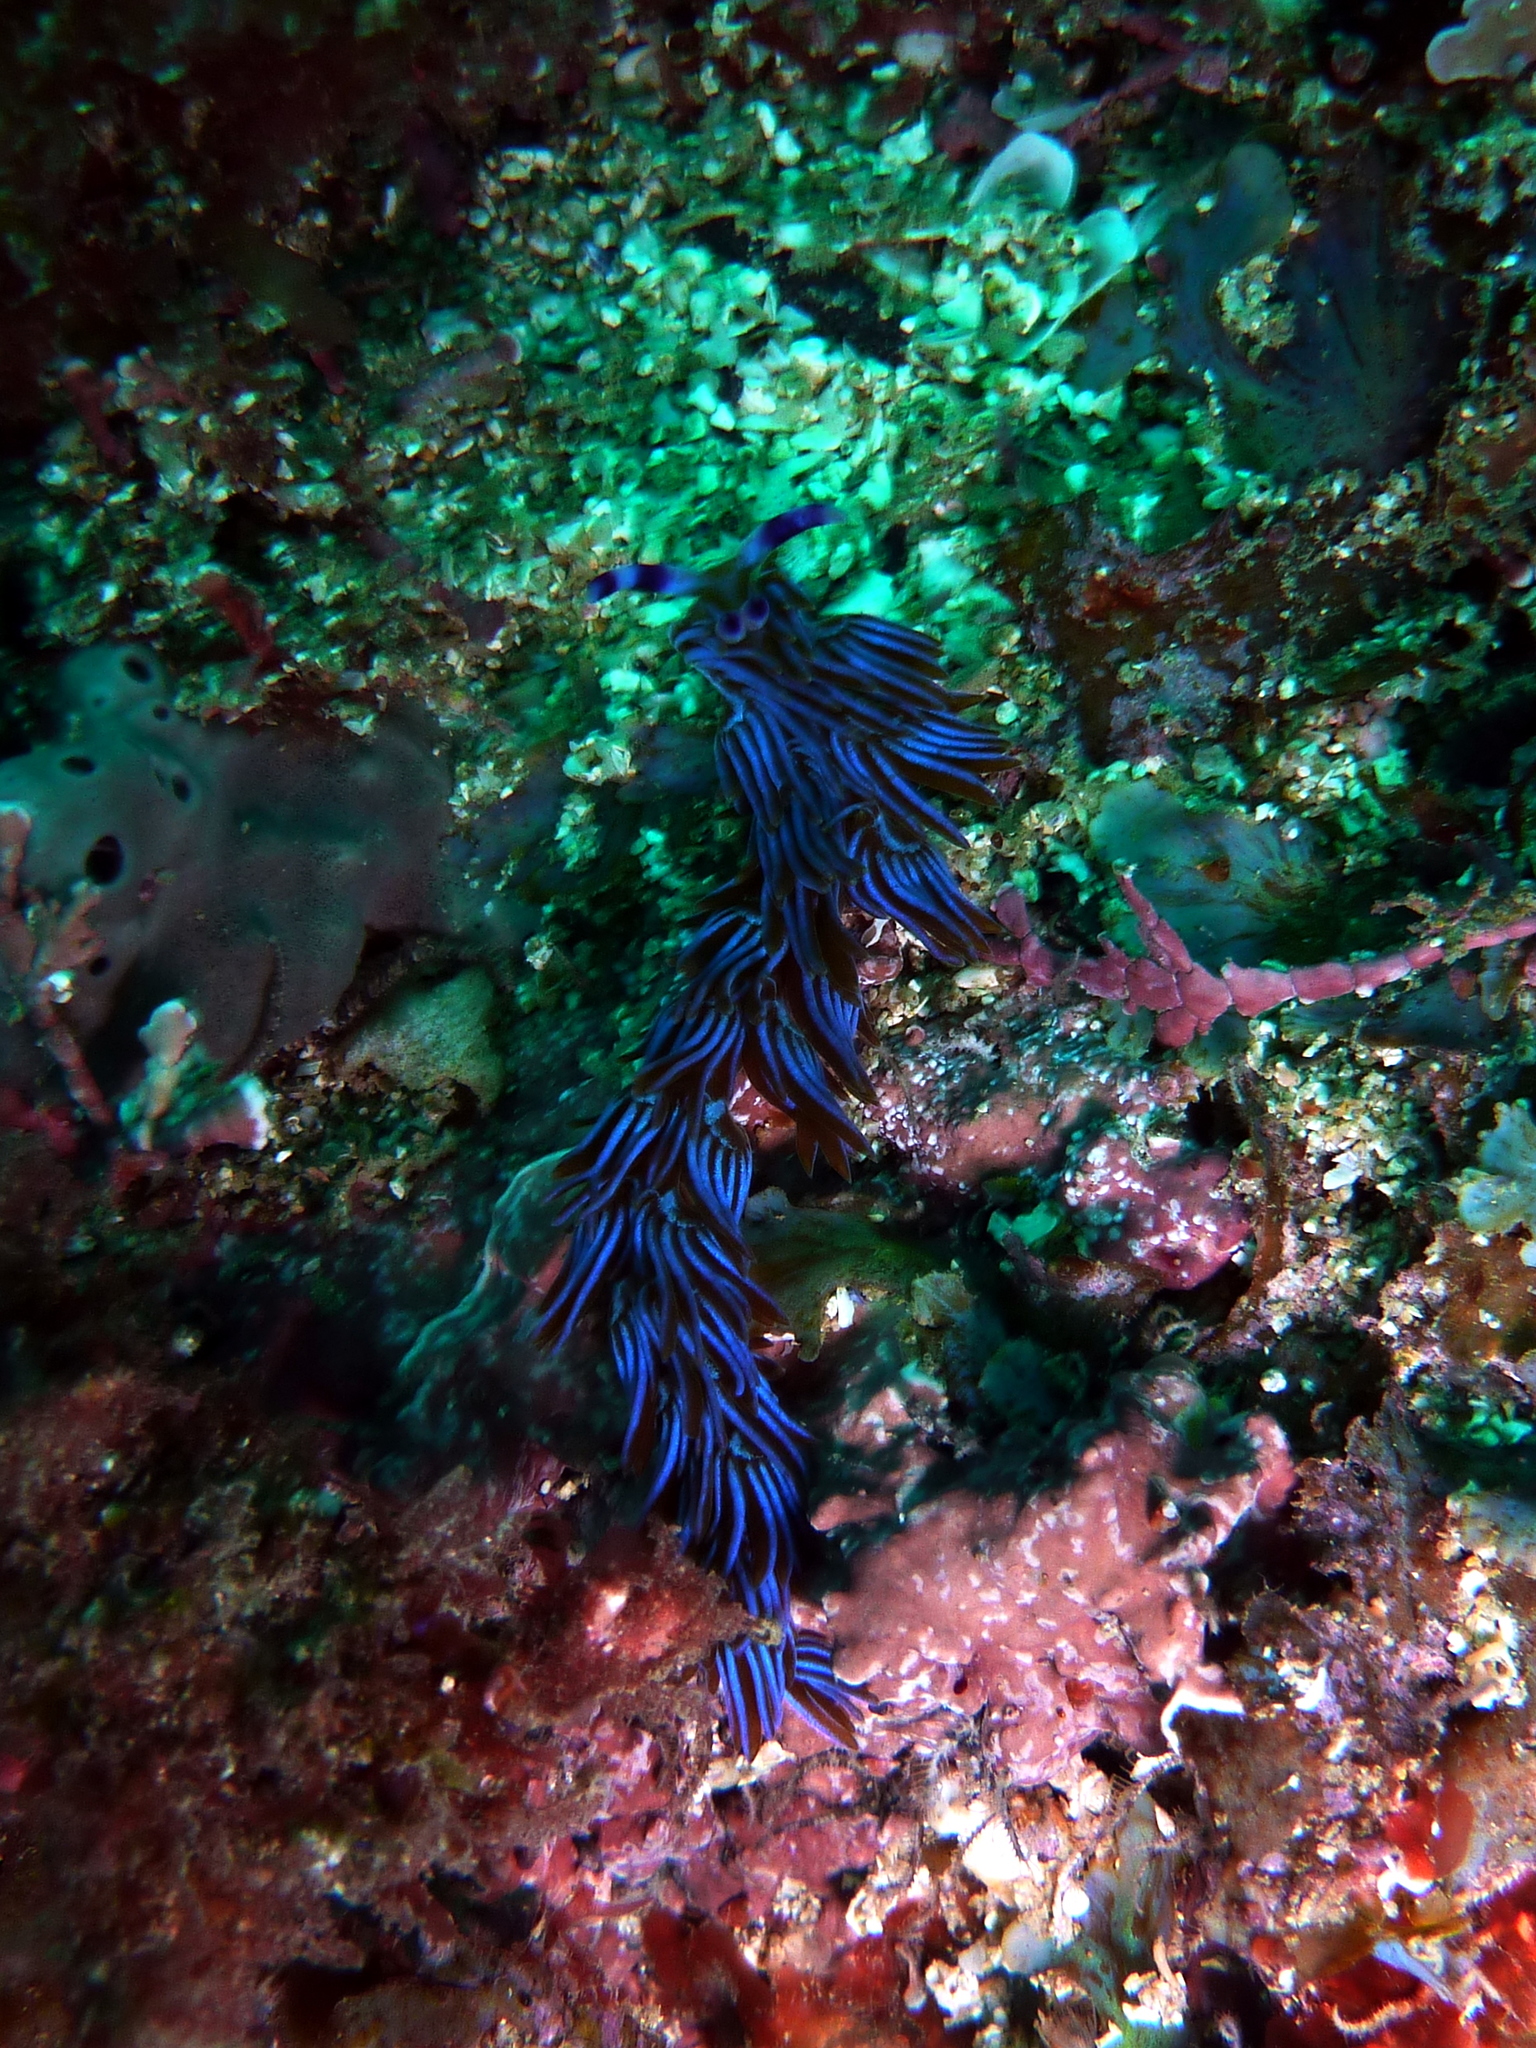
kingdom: Animalia
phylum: Mollusca
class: Gastropoda
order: Nudibranchia
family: Facelinidae
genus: Pteraeolidia
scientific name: Pteraeolidia ianthina
